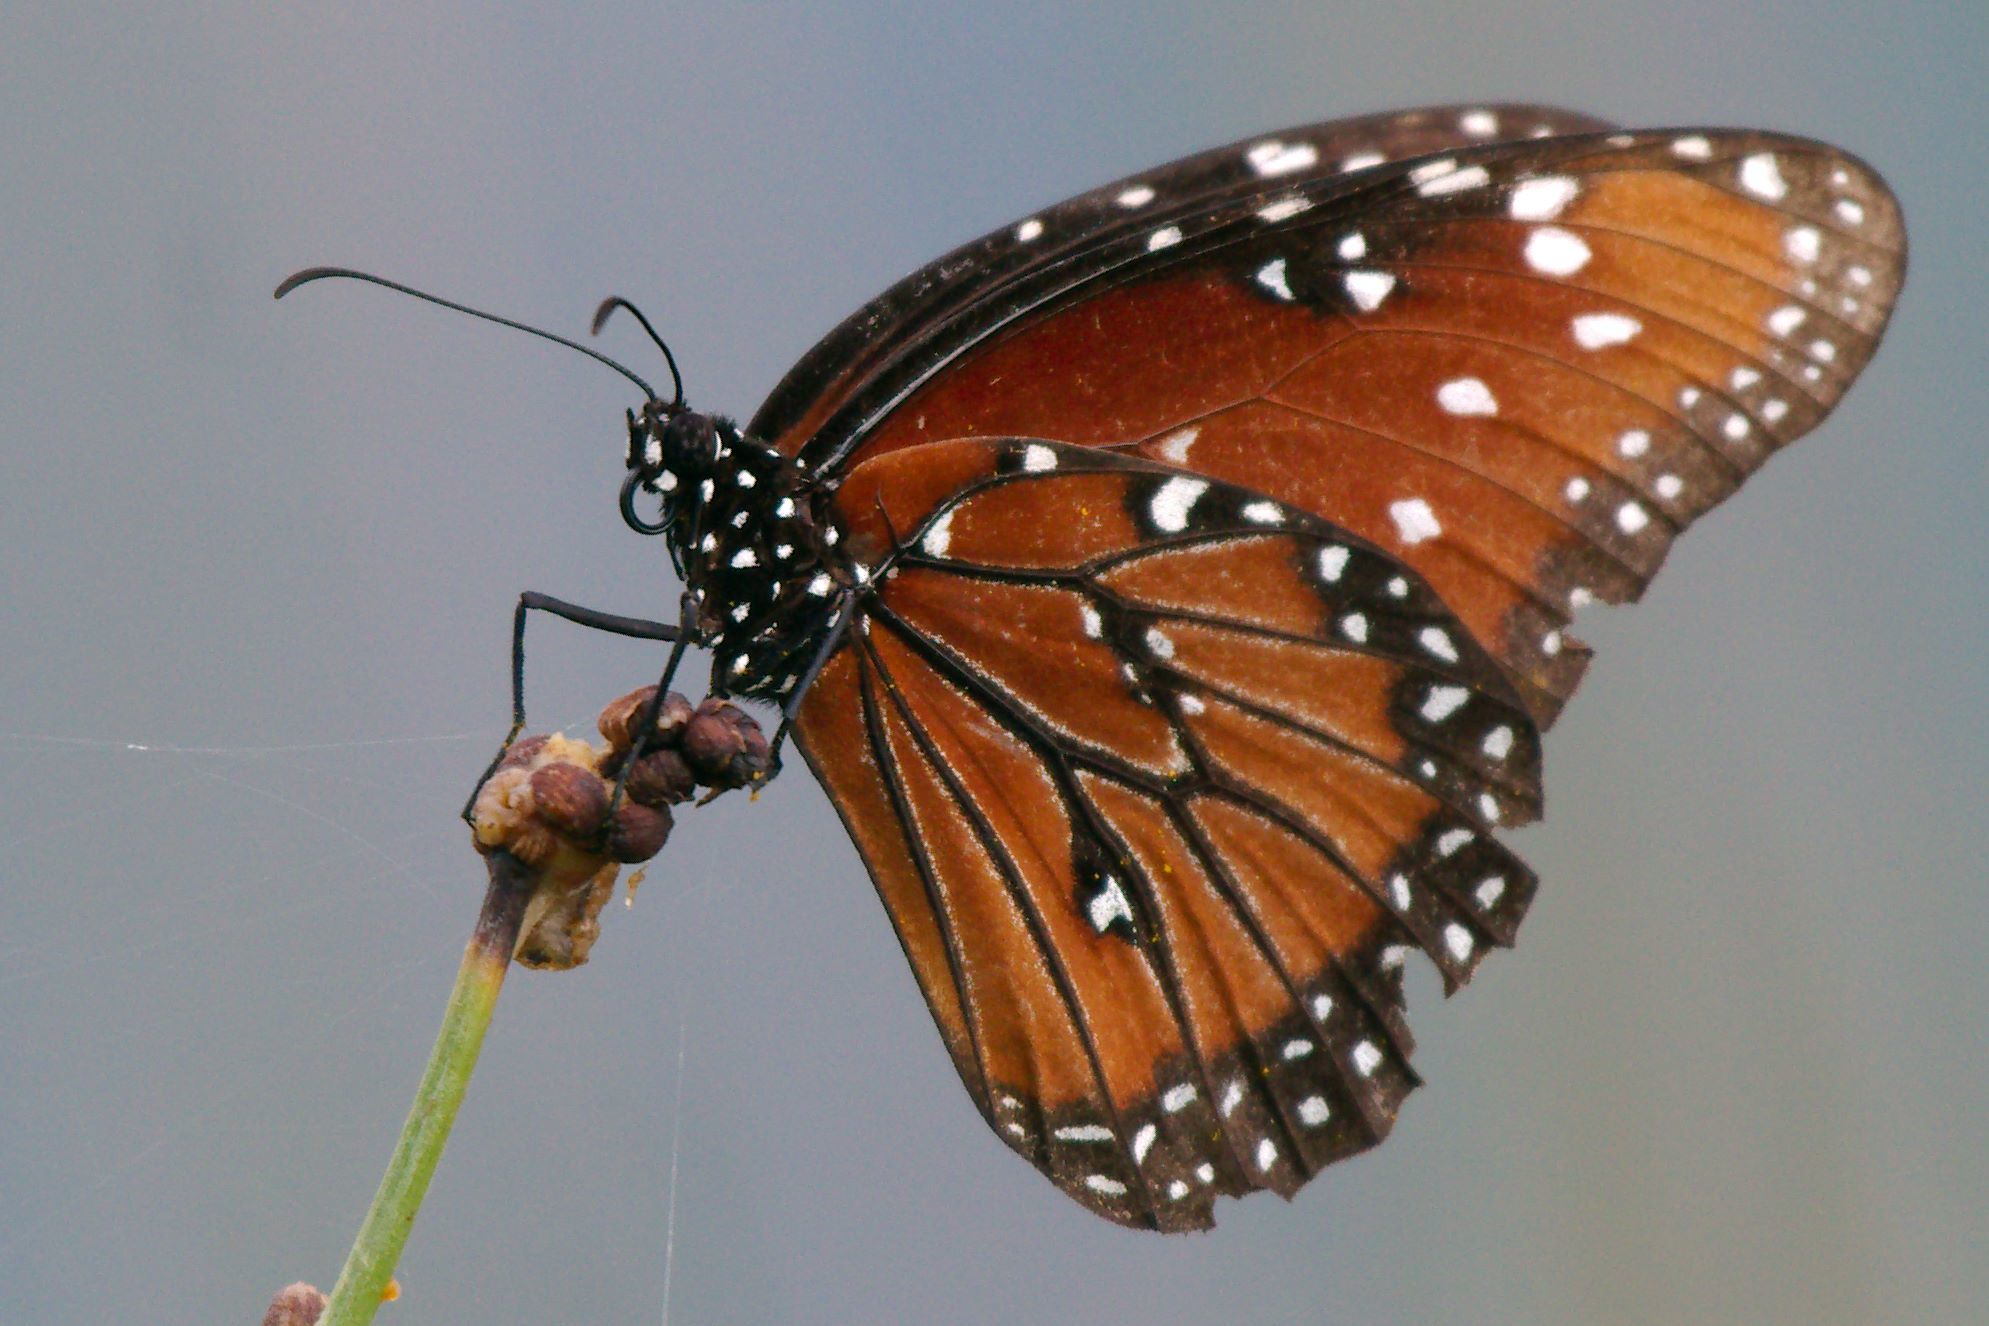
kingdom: Animalia
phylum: Arthropoda
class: Insecta
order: Lepidoptera
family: Nymphalidae
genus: Danaus
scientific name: Danaus gilippus
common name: Queen
